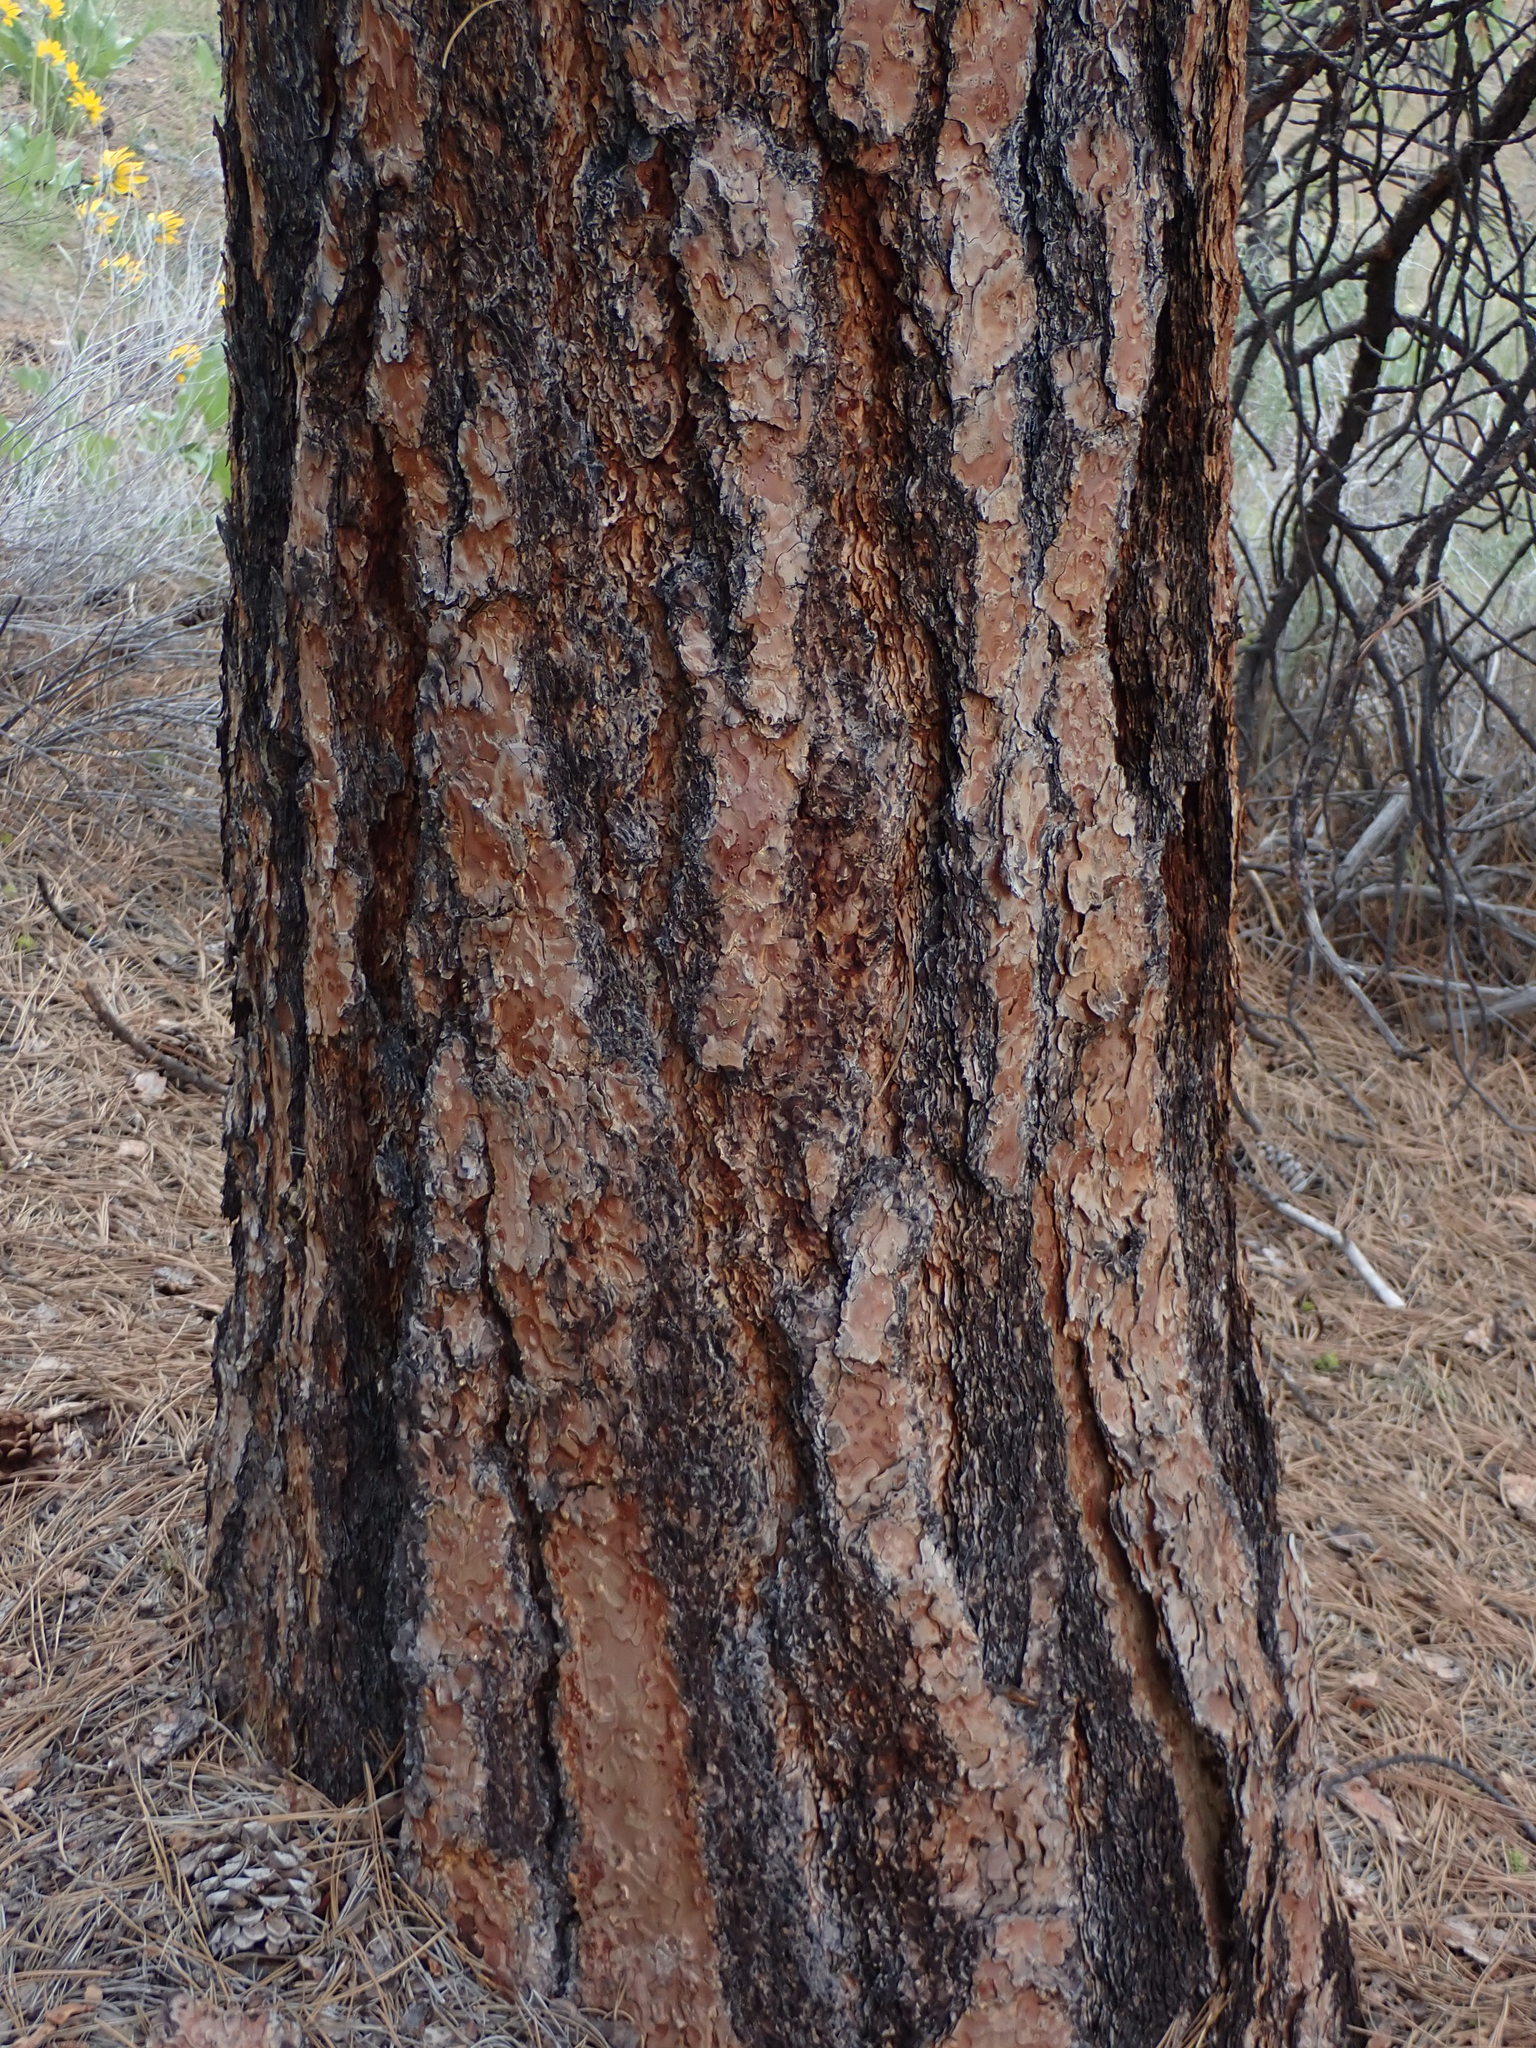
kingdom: Plantae
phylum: Tracheophyta
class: Pinopsida
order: Pinales
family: Pinaceae
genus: Pinus
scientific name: Pinus ponderosa
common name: Western yellow-pine
